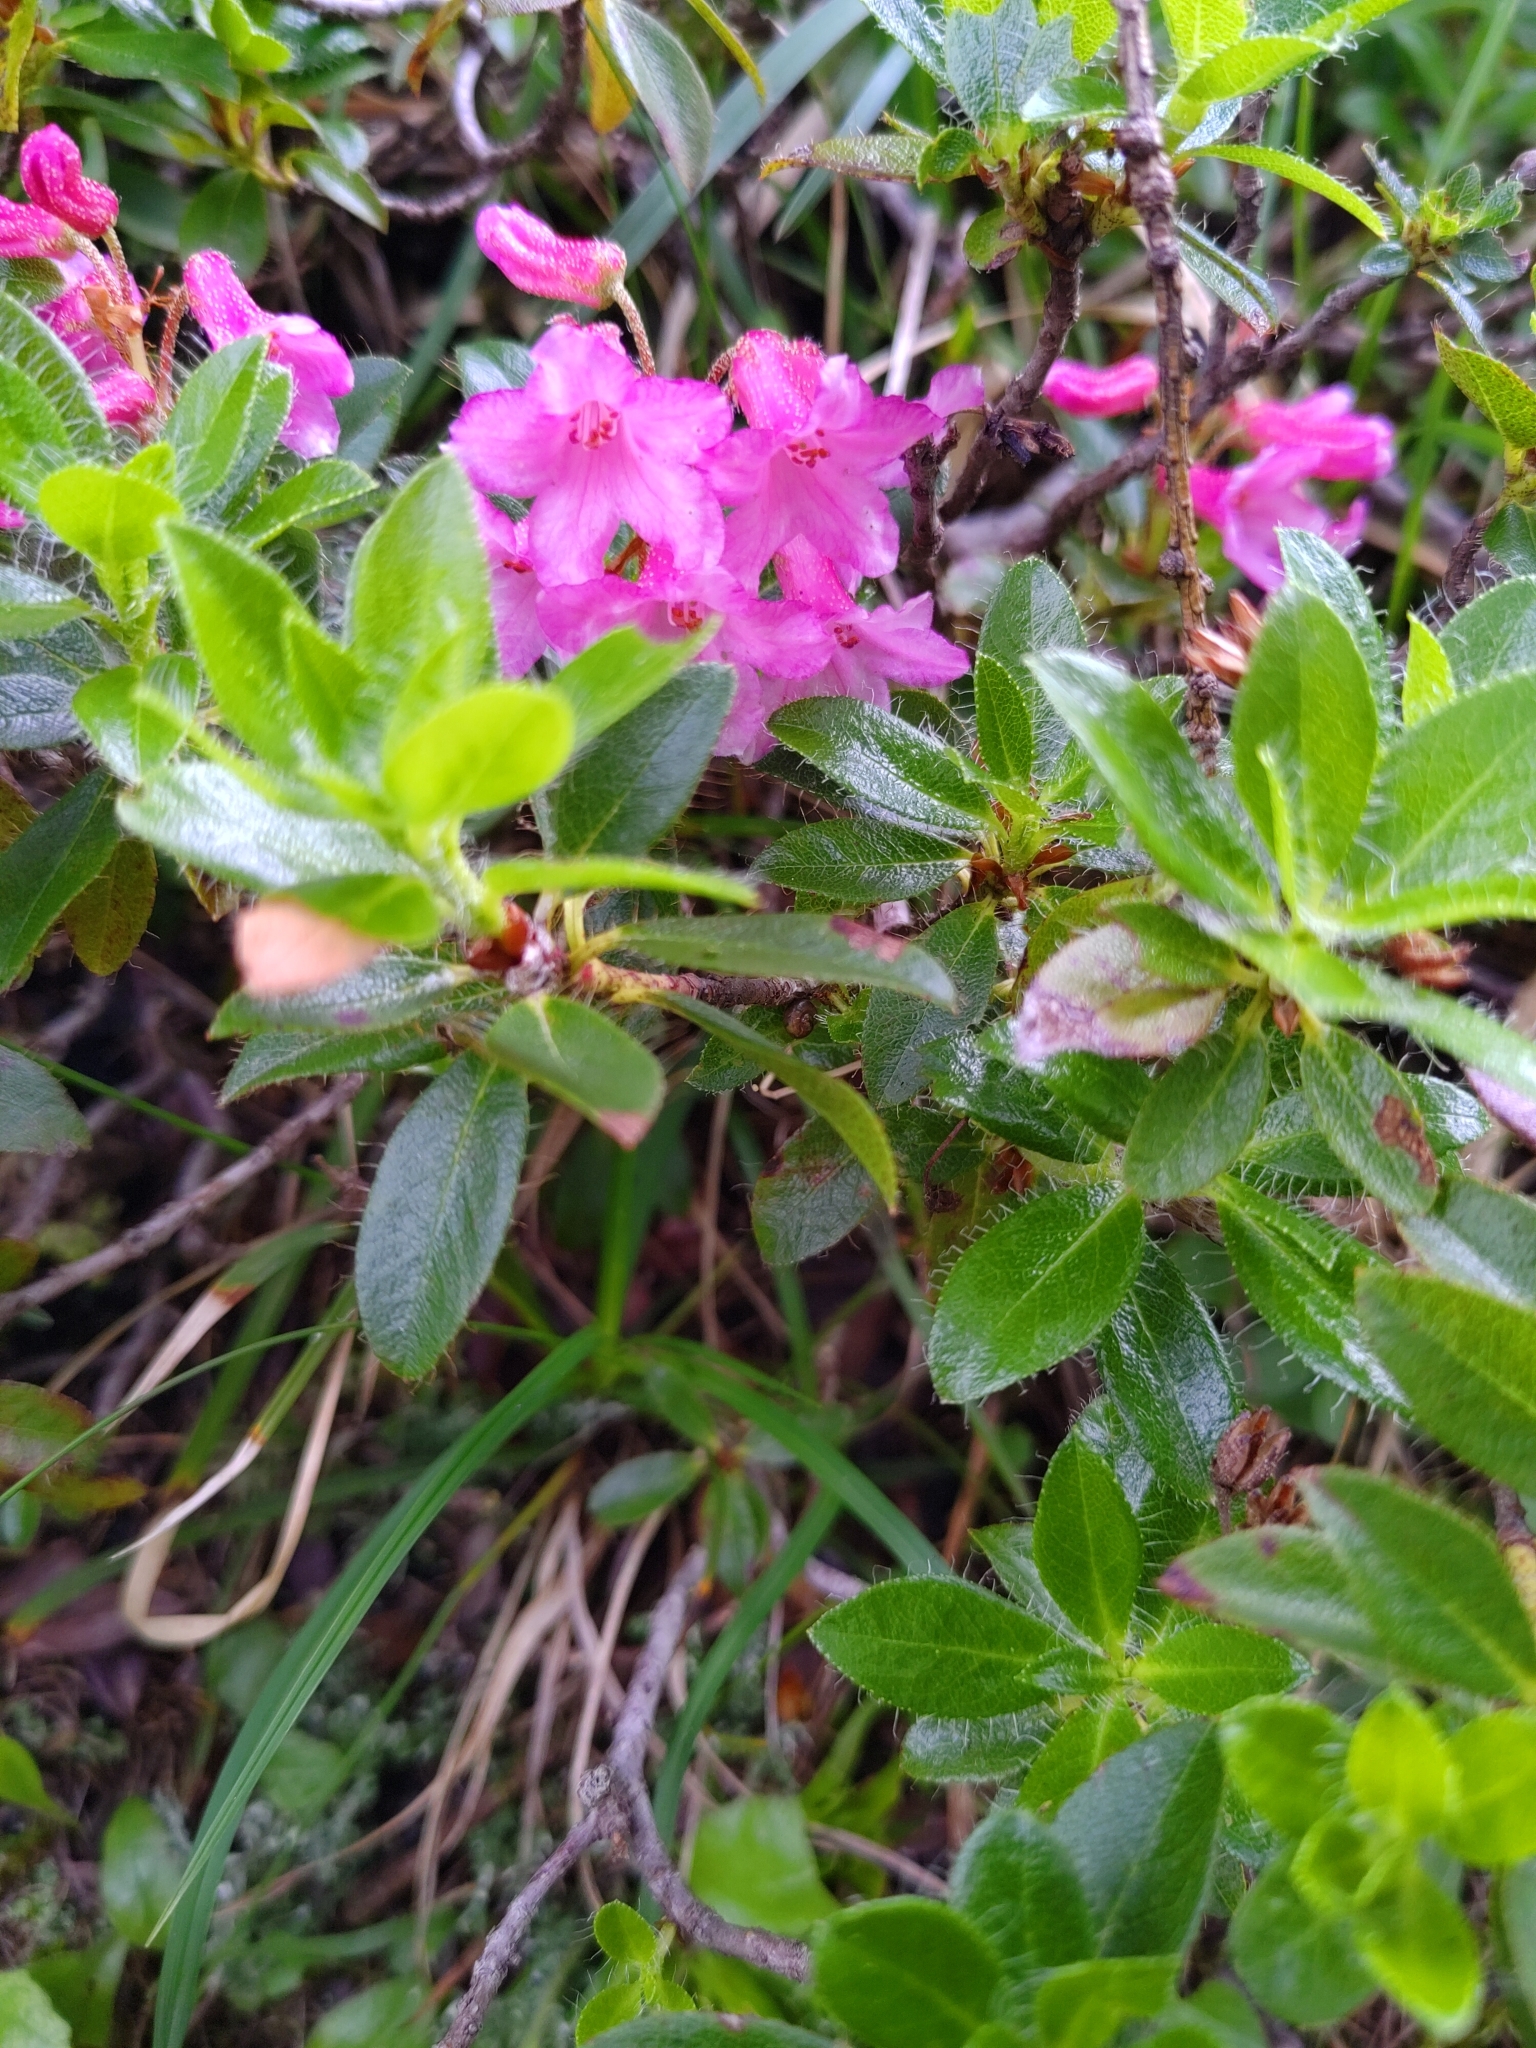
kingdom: Plantae
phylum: Tracheophyta
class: Magnoliopsida
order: Ericales
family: Ericaceae
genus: Rhododendron
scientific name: Rhododendron hirsutum
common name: Hairy alpenrose
